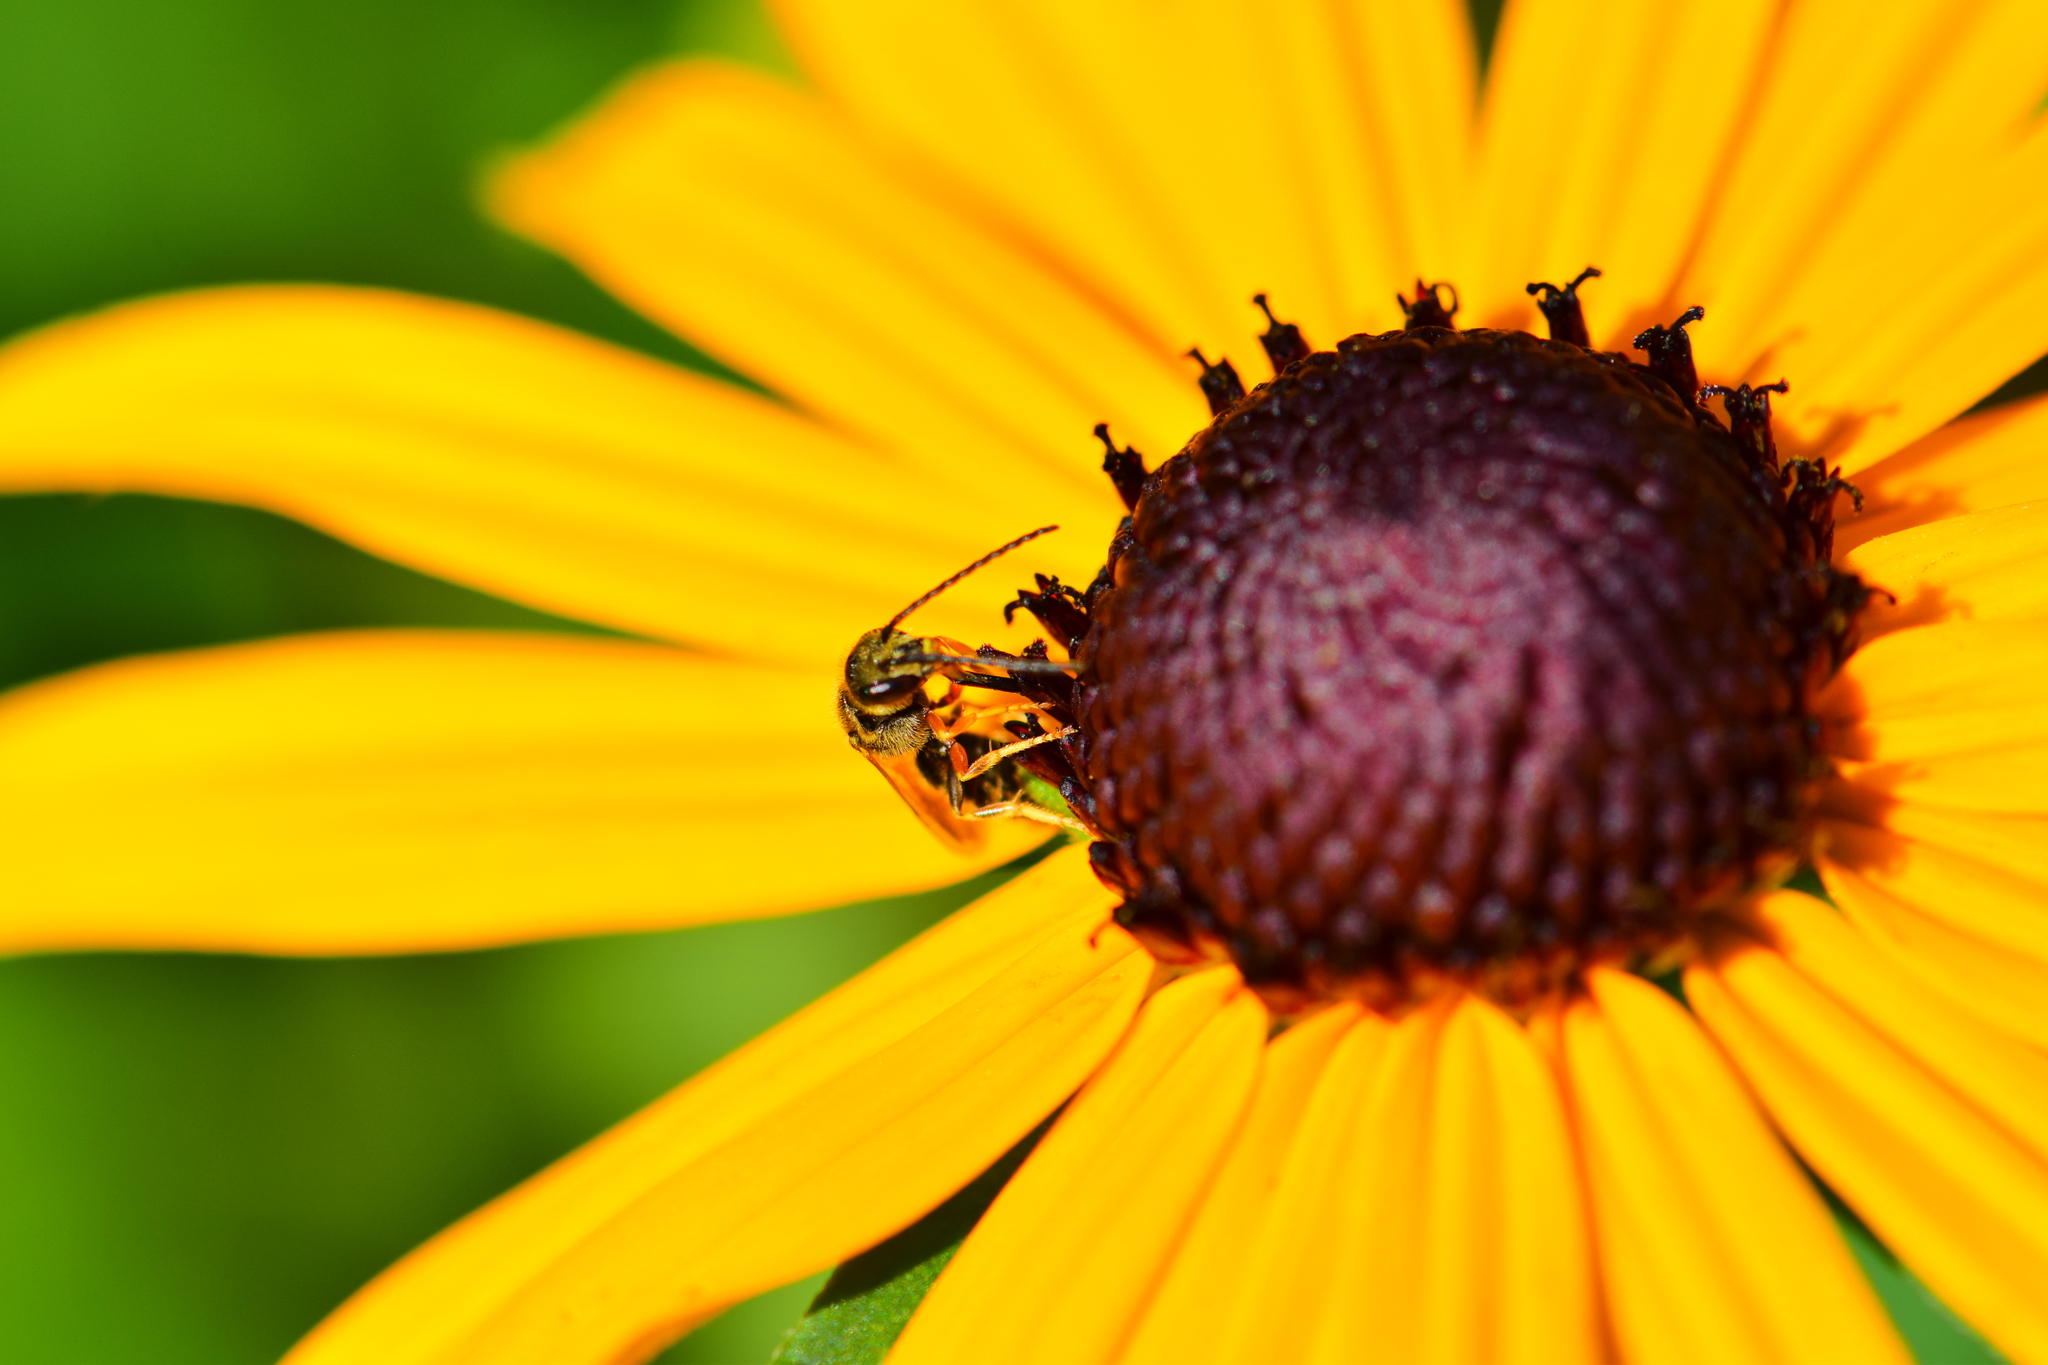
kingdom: Animalia
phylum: Arthropoda
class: Insecta
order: Hymenoptera
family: Halictidae
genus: Halictus
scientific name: Halictus confusus
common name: Southern bronze furrow bee
